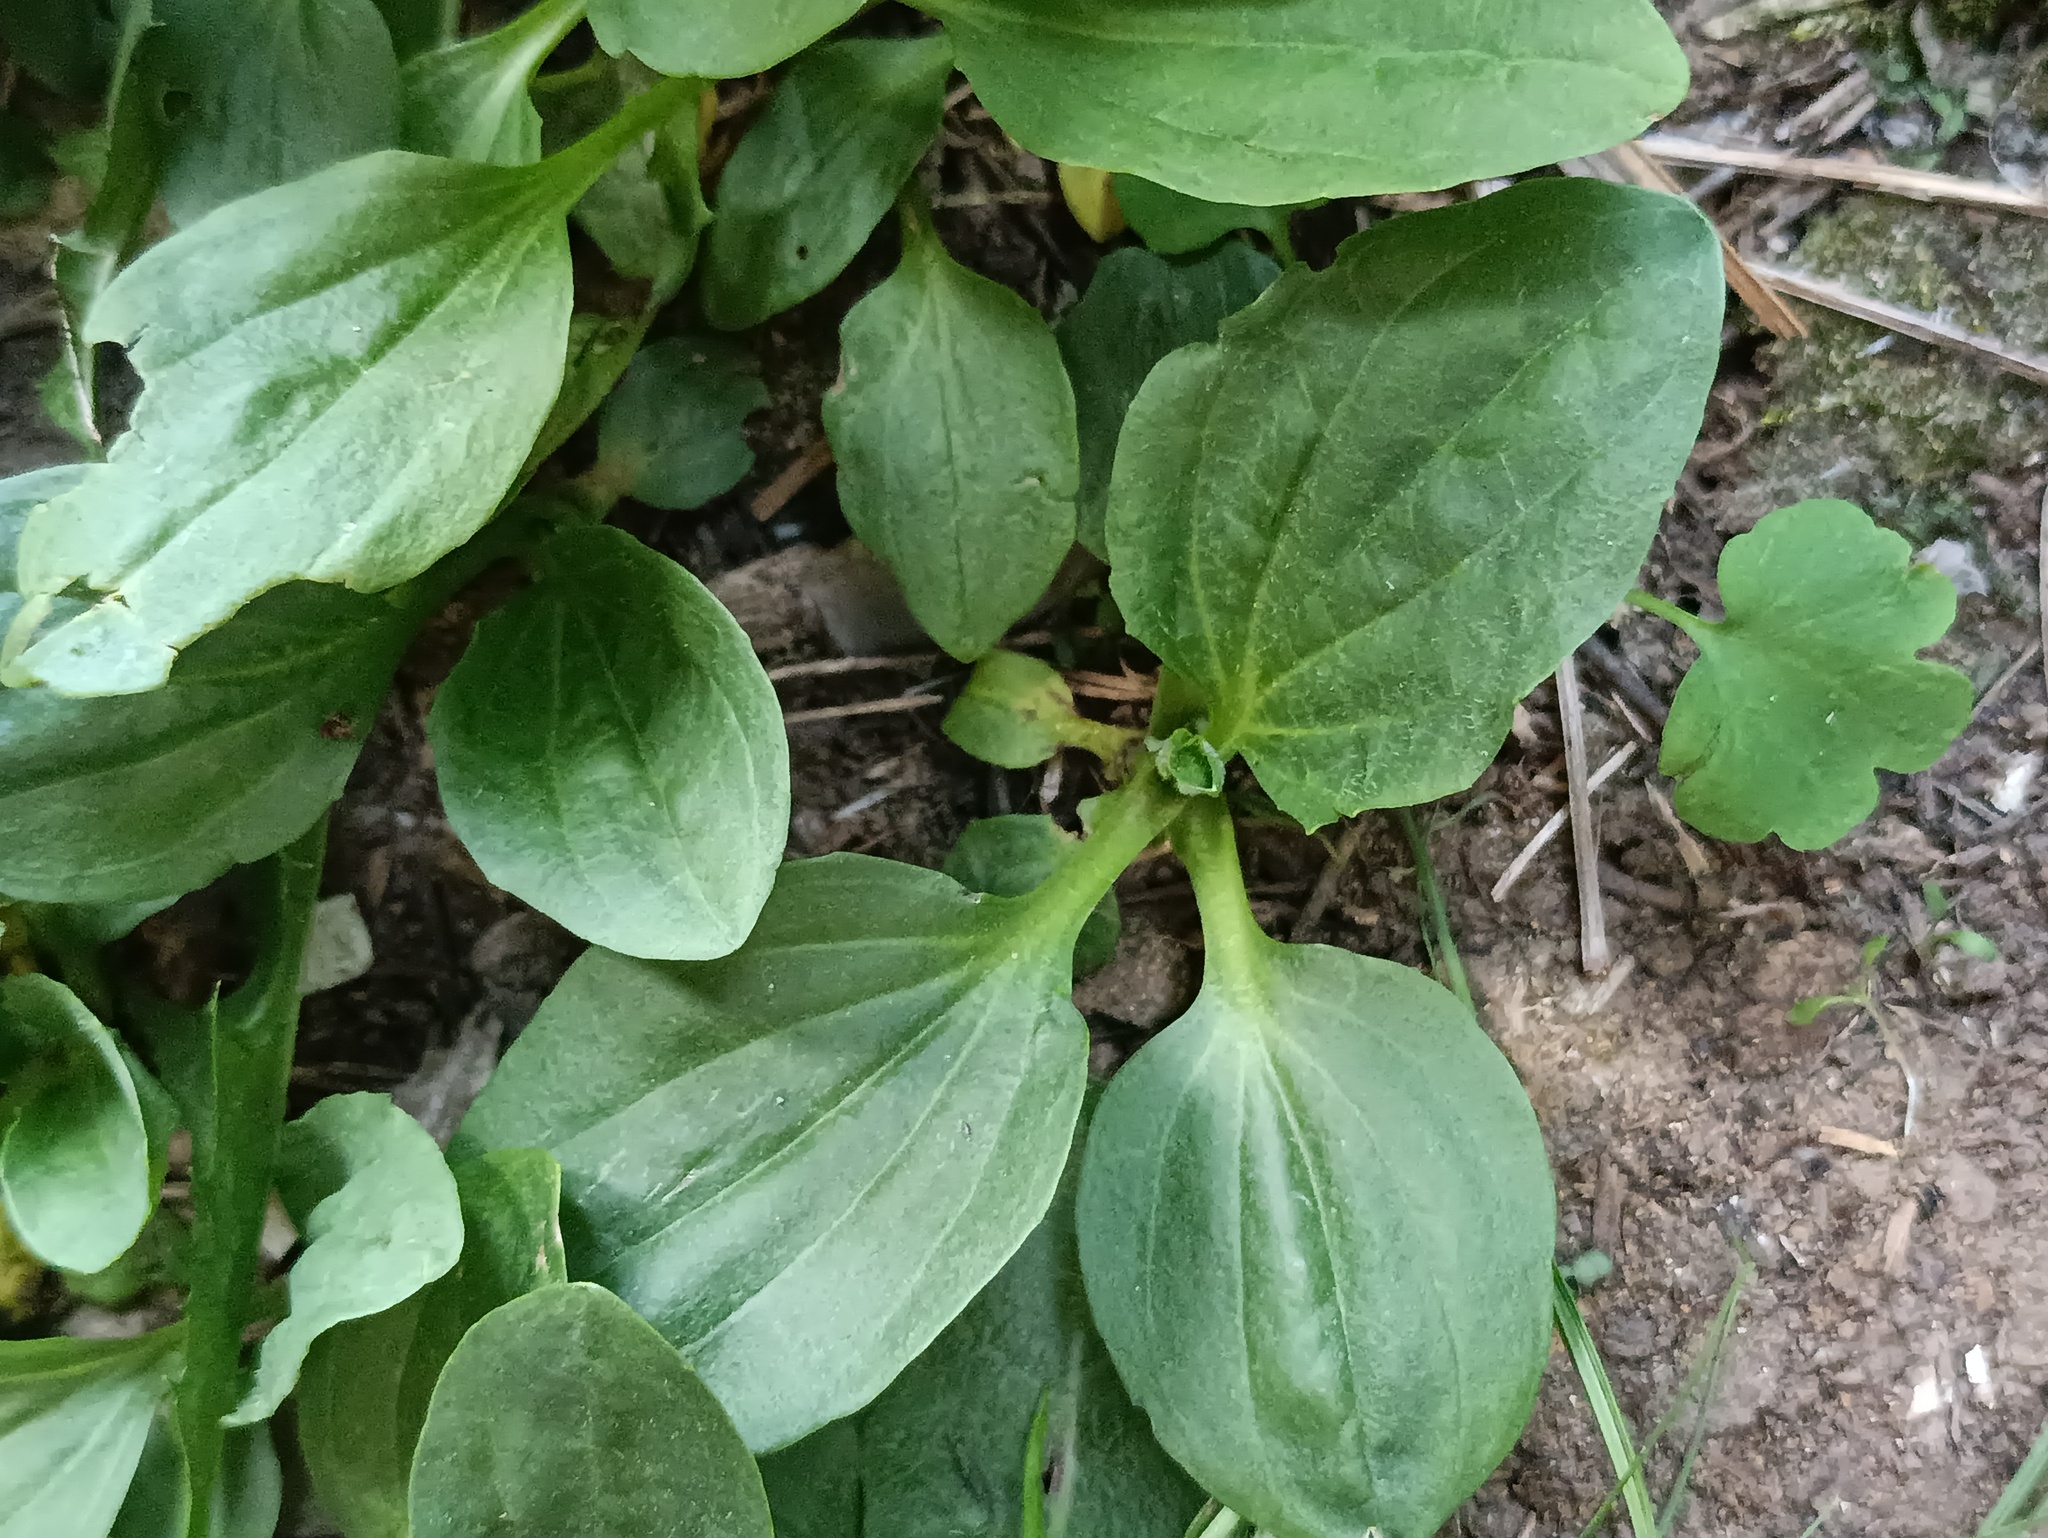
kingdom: Plantae
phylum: Tracheophyta
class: Magnoliopsida
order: Lamiales
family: Plantaginaceae
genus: Plantago
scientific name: Plantago major
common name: Common plantain
